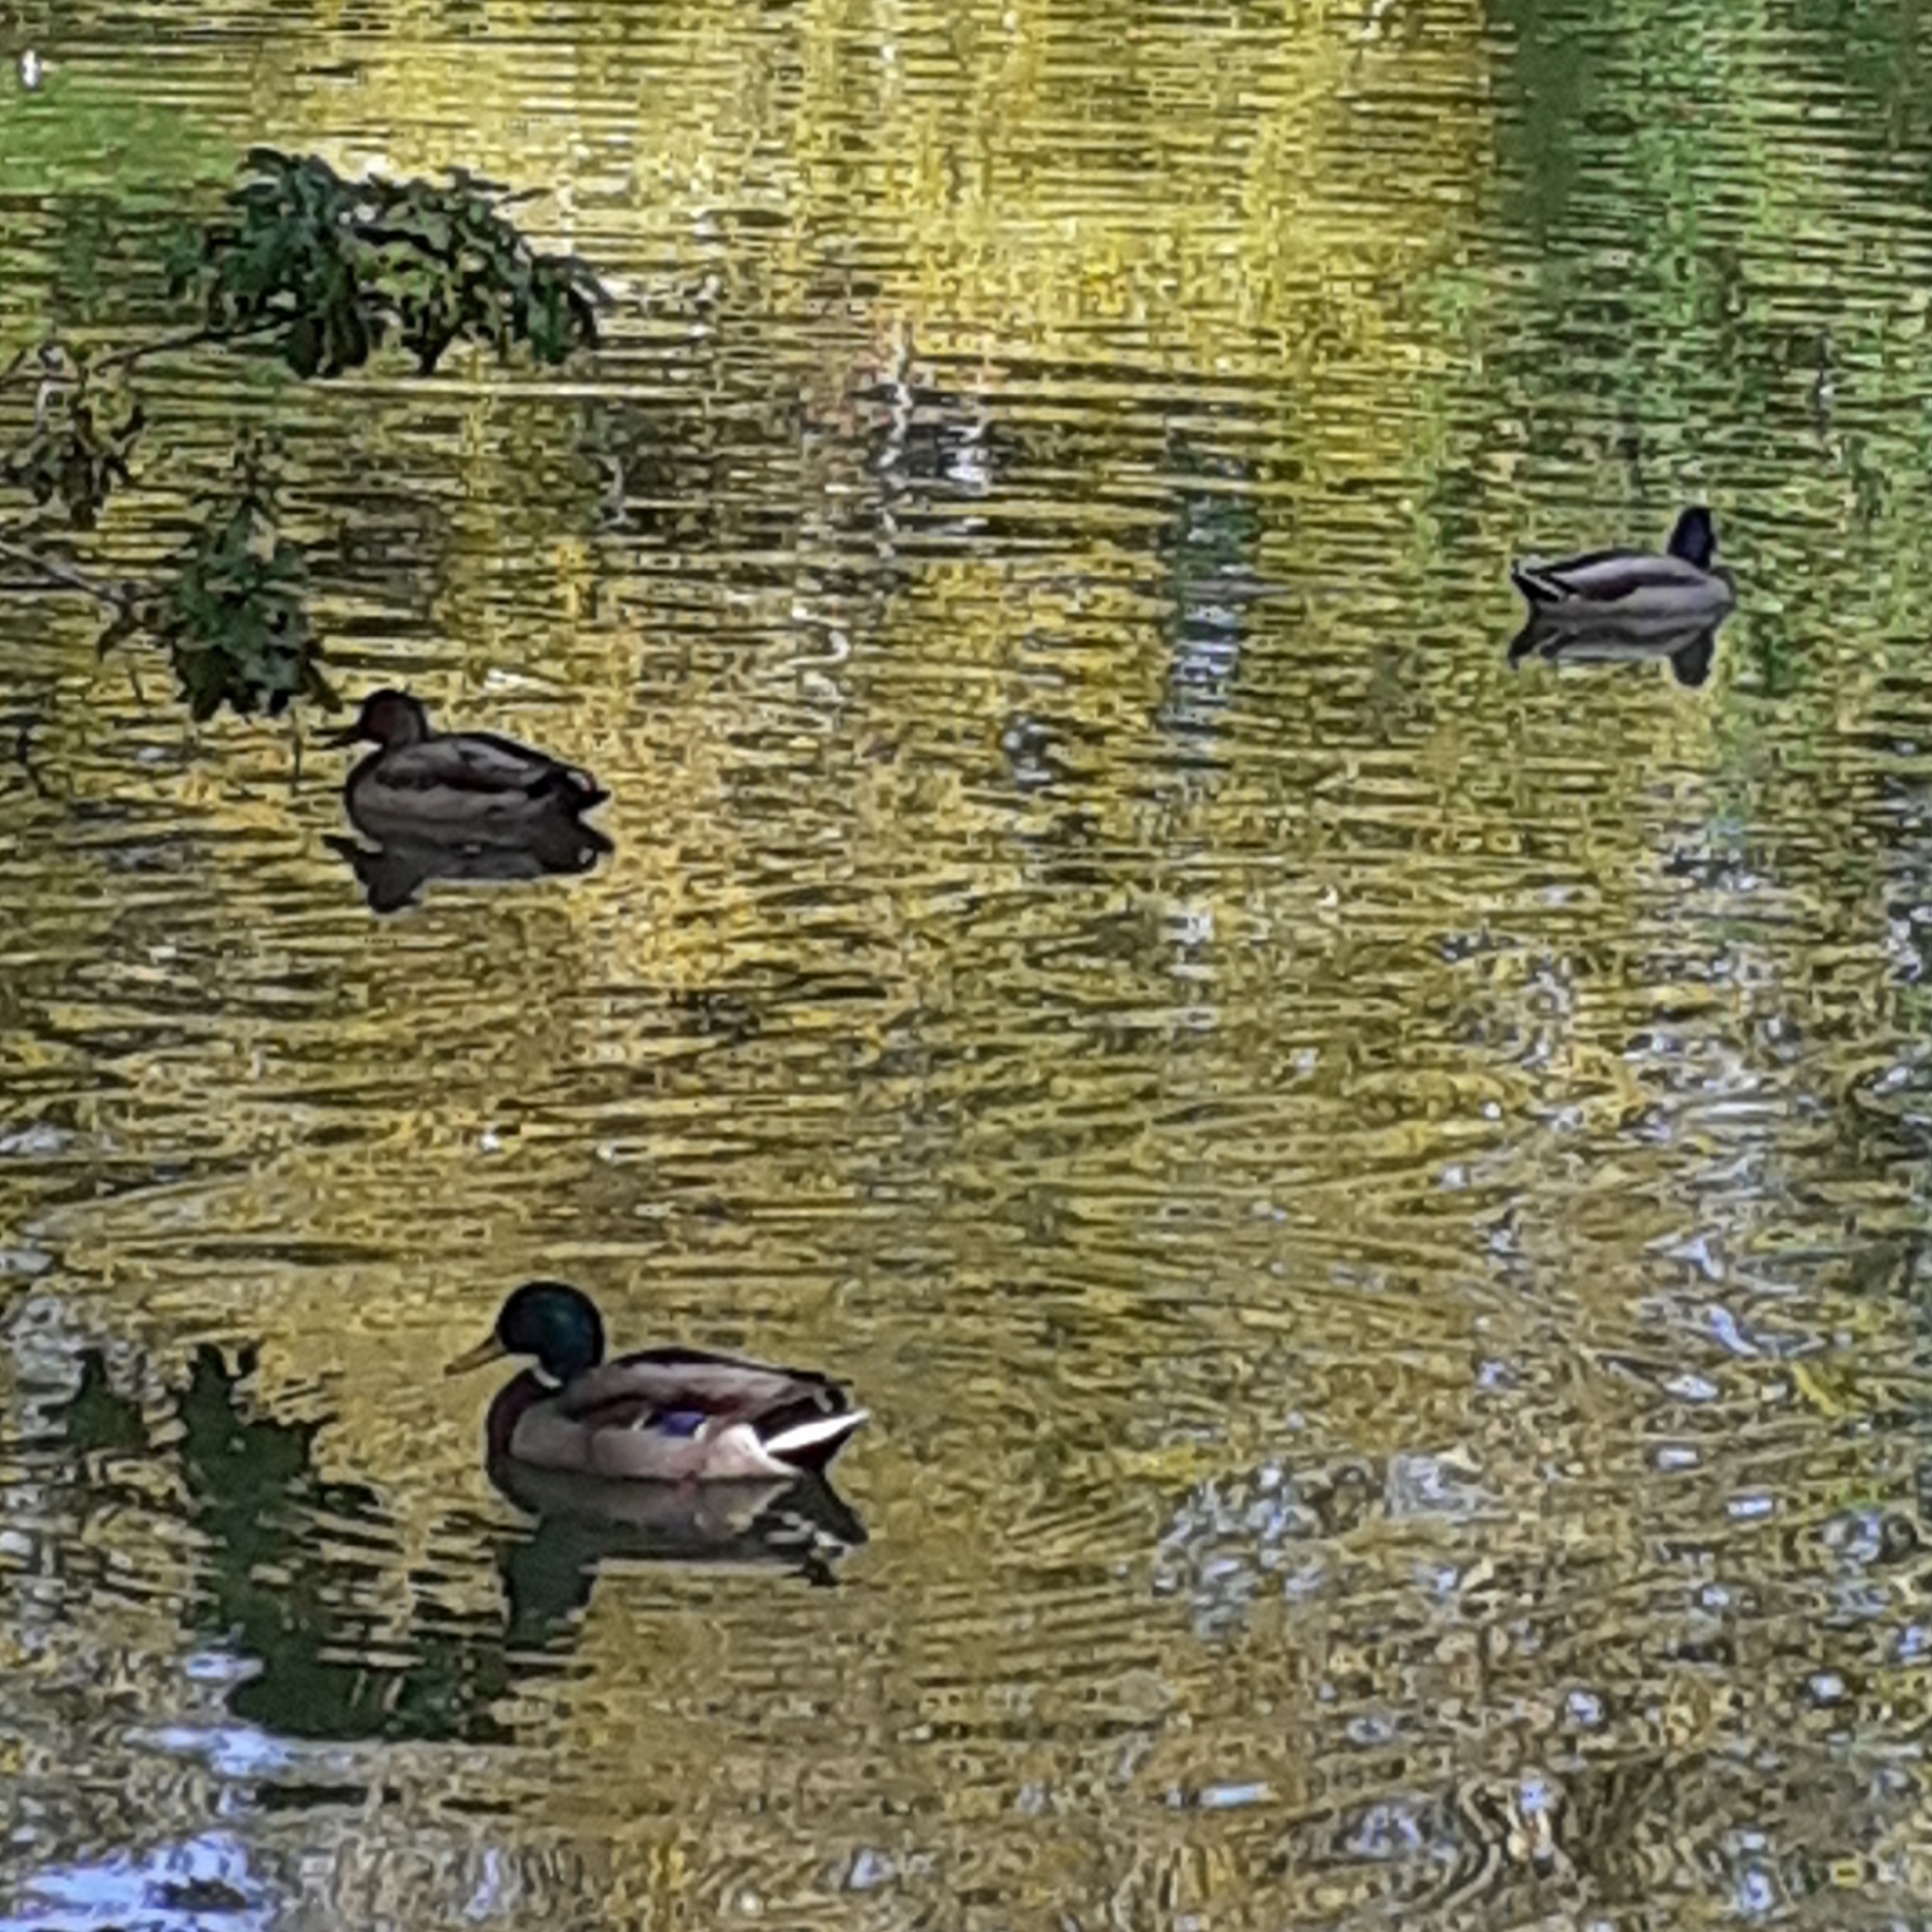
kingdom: Animalia
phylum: Chordata
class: Aves
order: Anseriformes
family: Anatidae
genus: Anas
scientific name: Anas platyrhynchos
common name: Mallard
